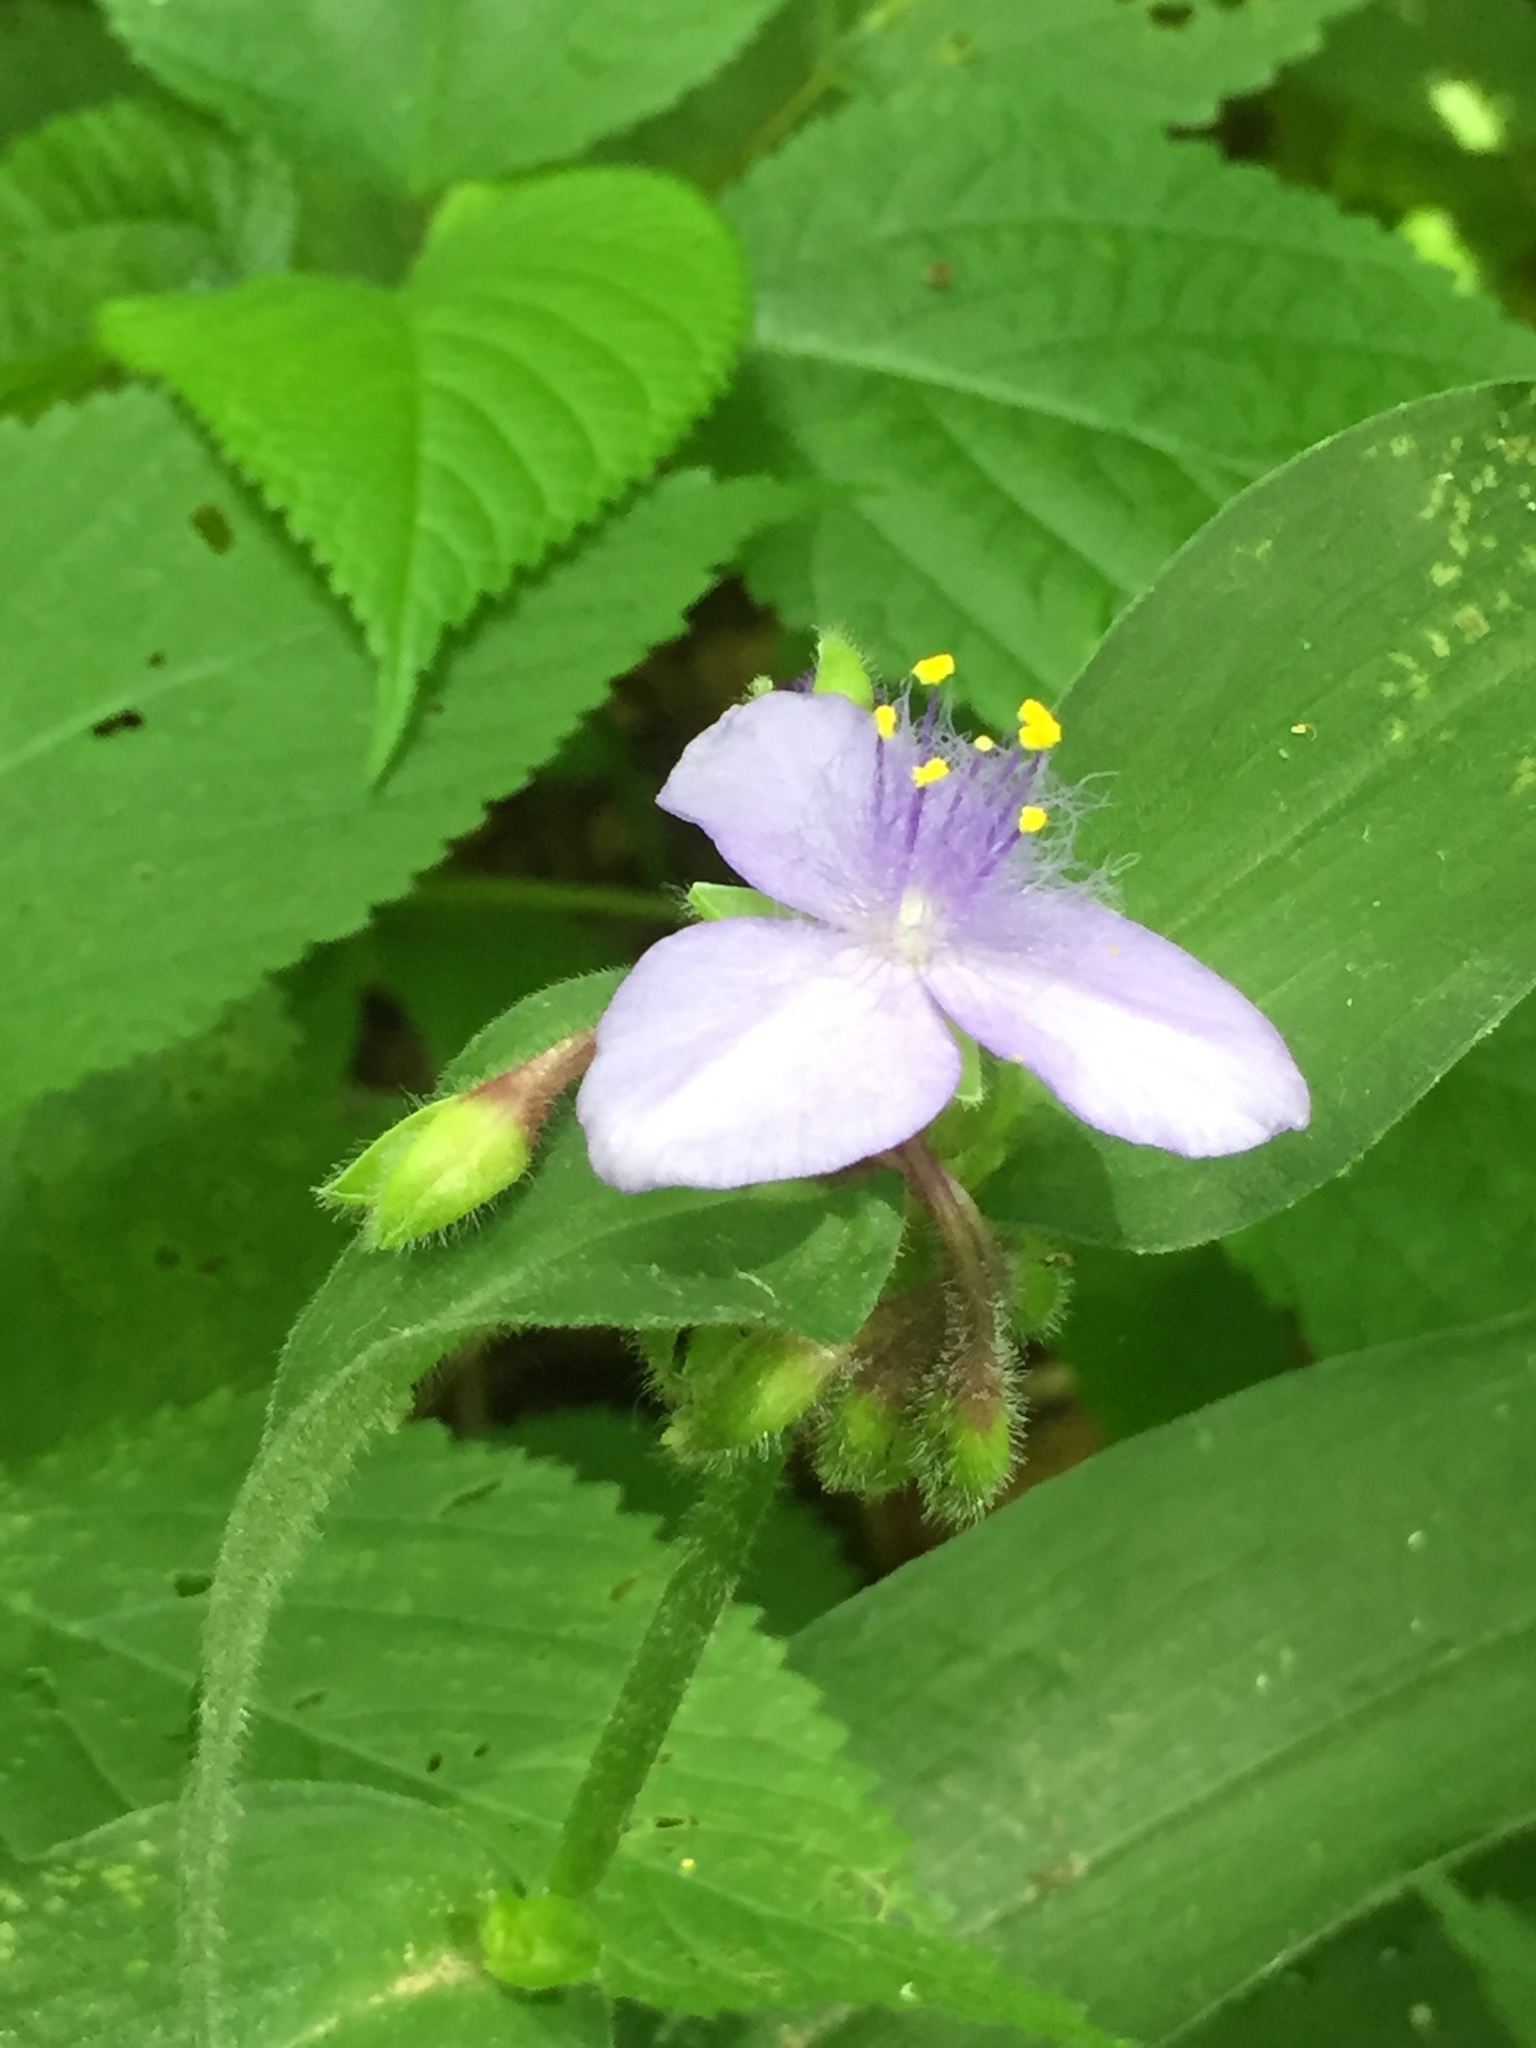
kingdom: Plantae
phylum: Tracheophyta
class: Liliopsida
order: Commelinales
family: Commelinaceae
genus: Tradescantia
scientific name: Tradescantia subaspera
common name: Wide-leaf spiderwort
